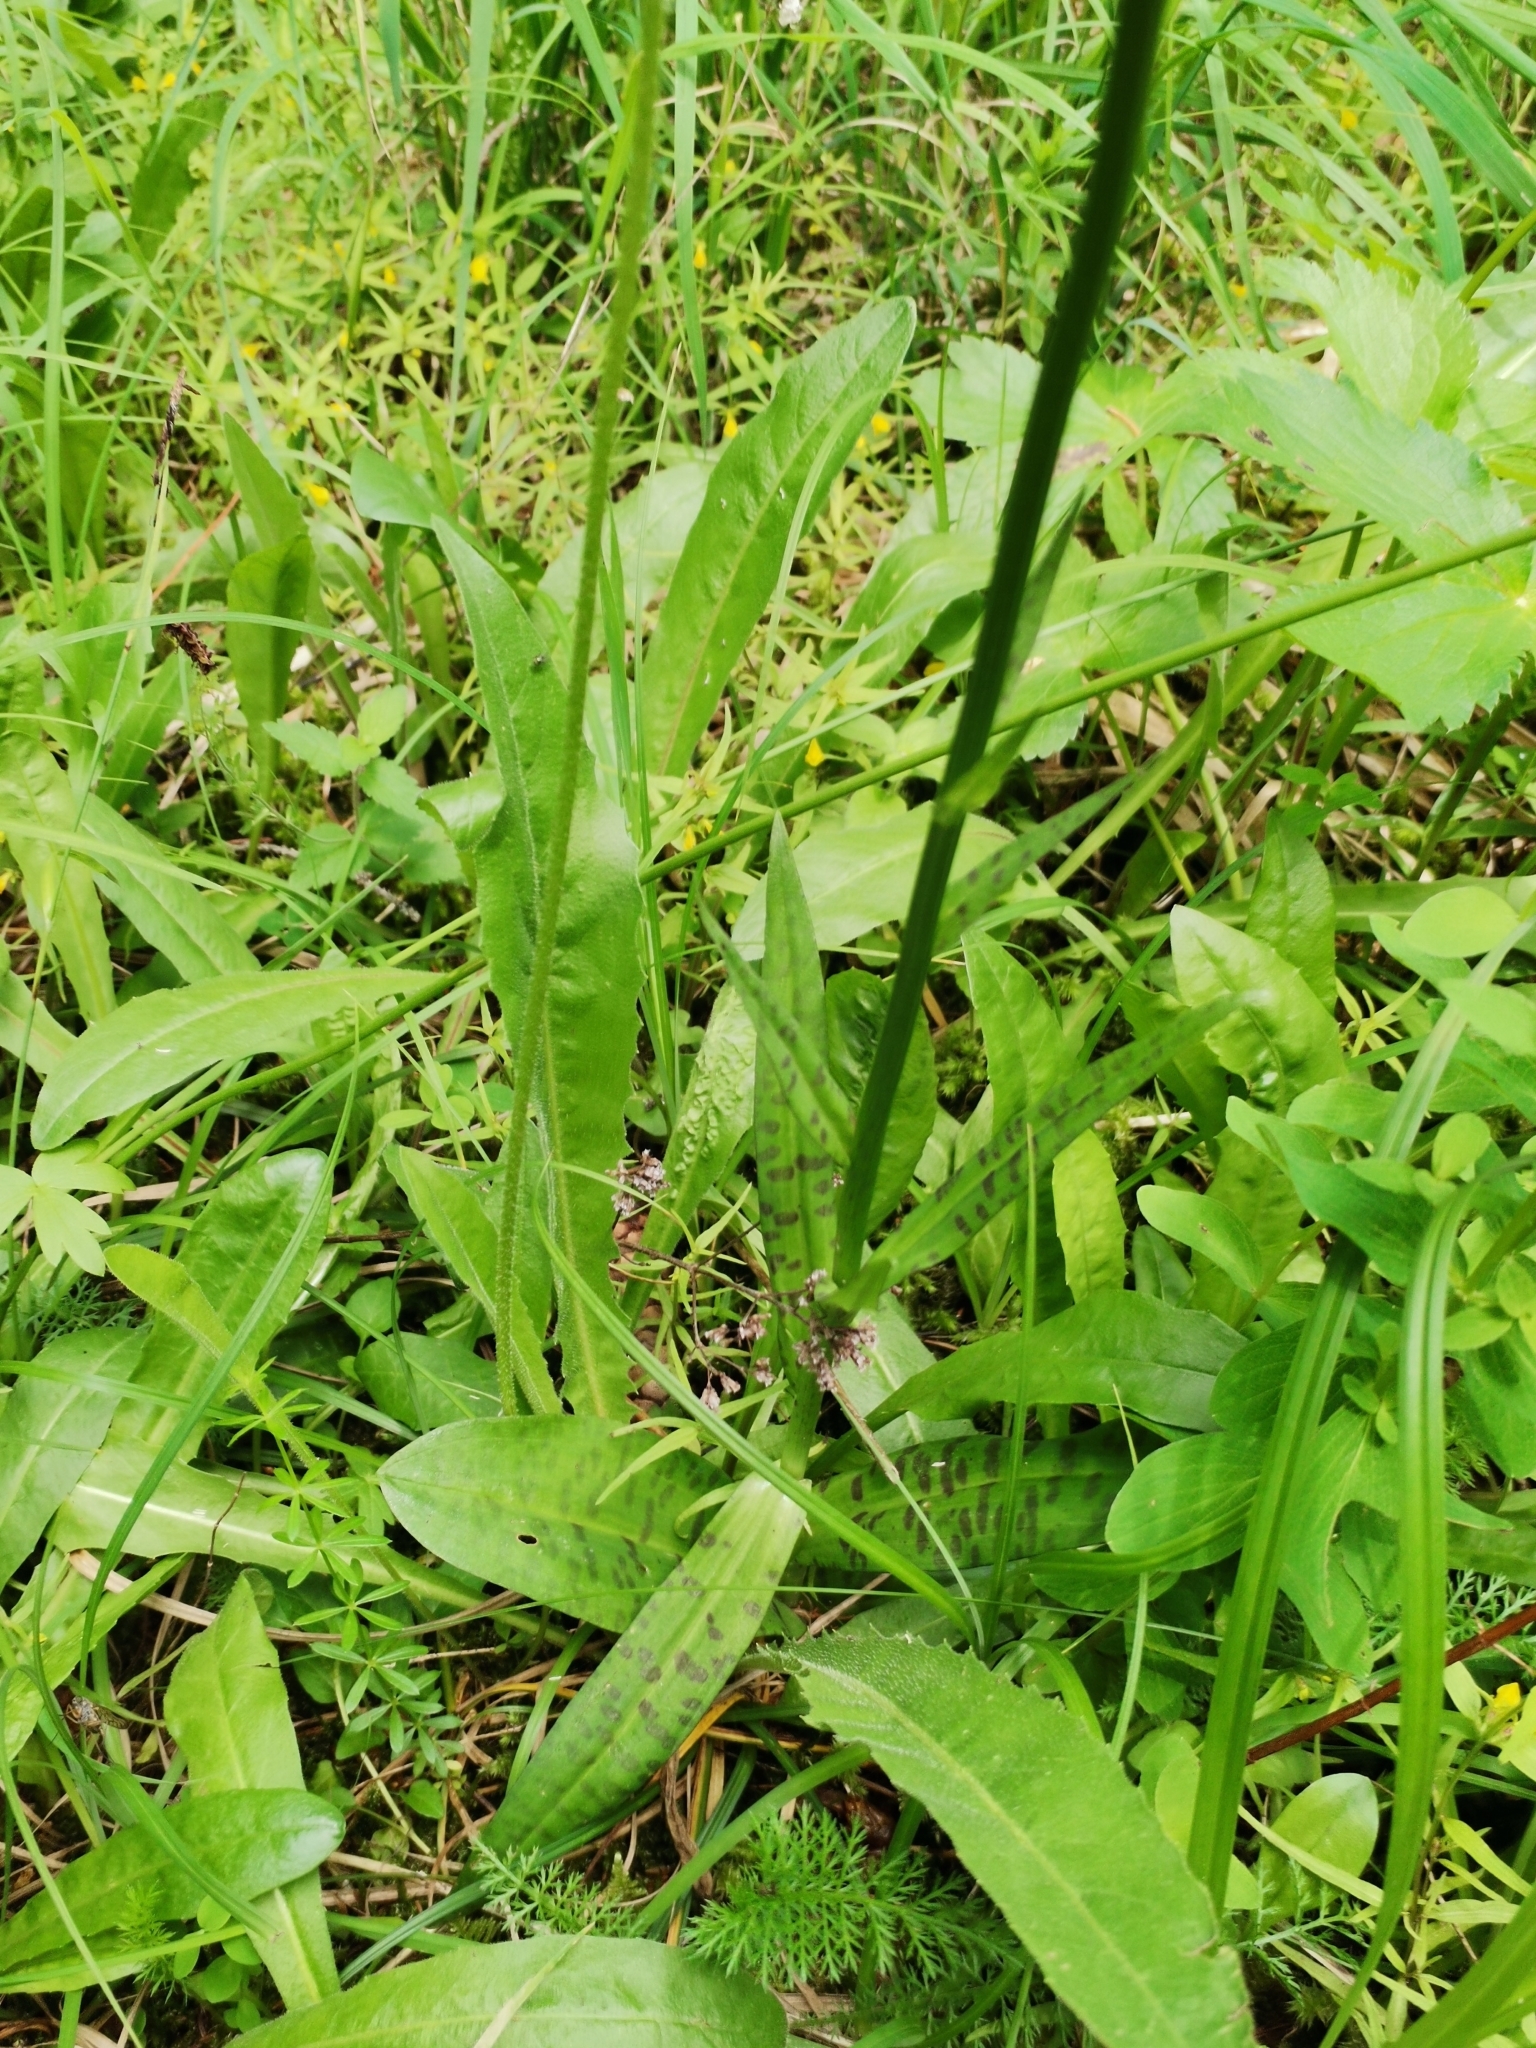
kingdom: Plantae
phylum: Tracheophyta
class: Liliopsida
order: Asparagales
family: Orchidaceae
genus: Dactylorhiza
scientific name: Dactylorhiza maculata
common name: Heath spotted-orchid
